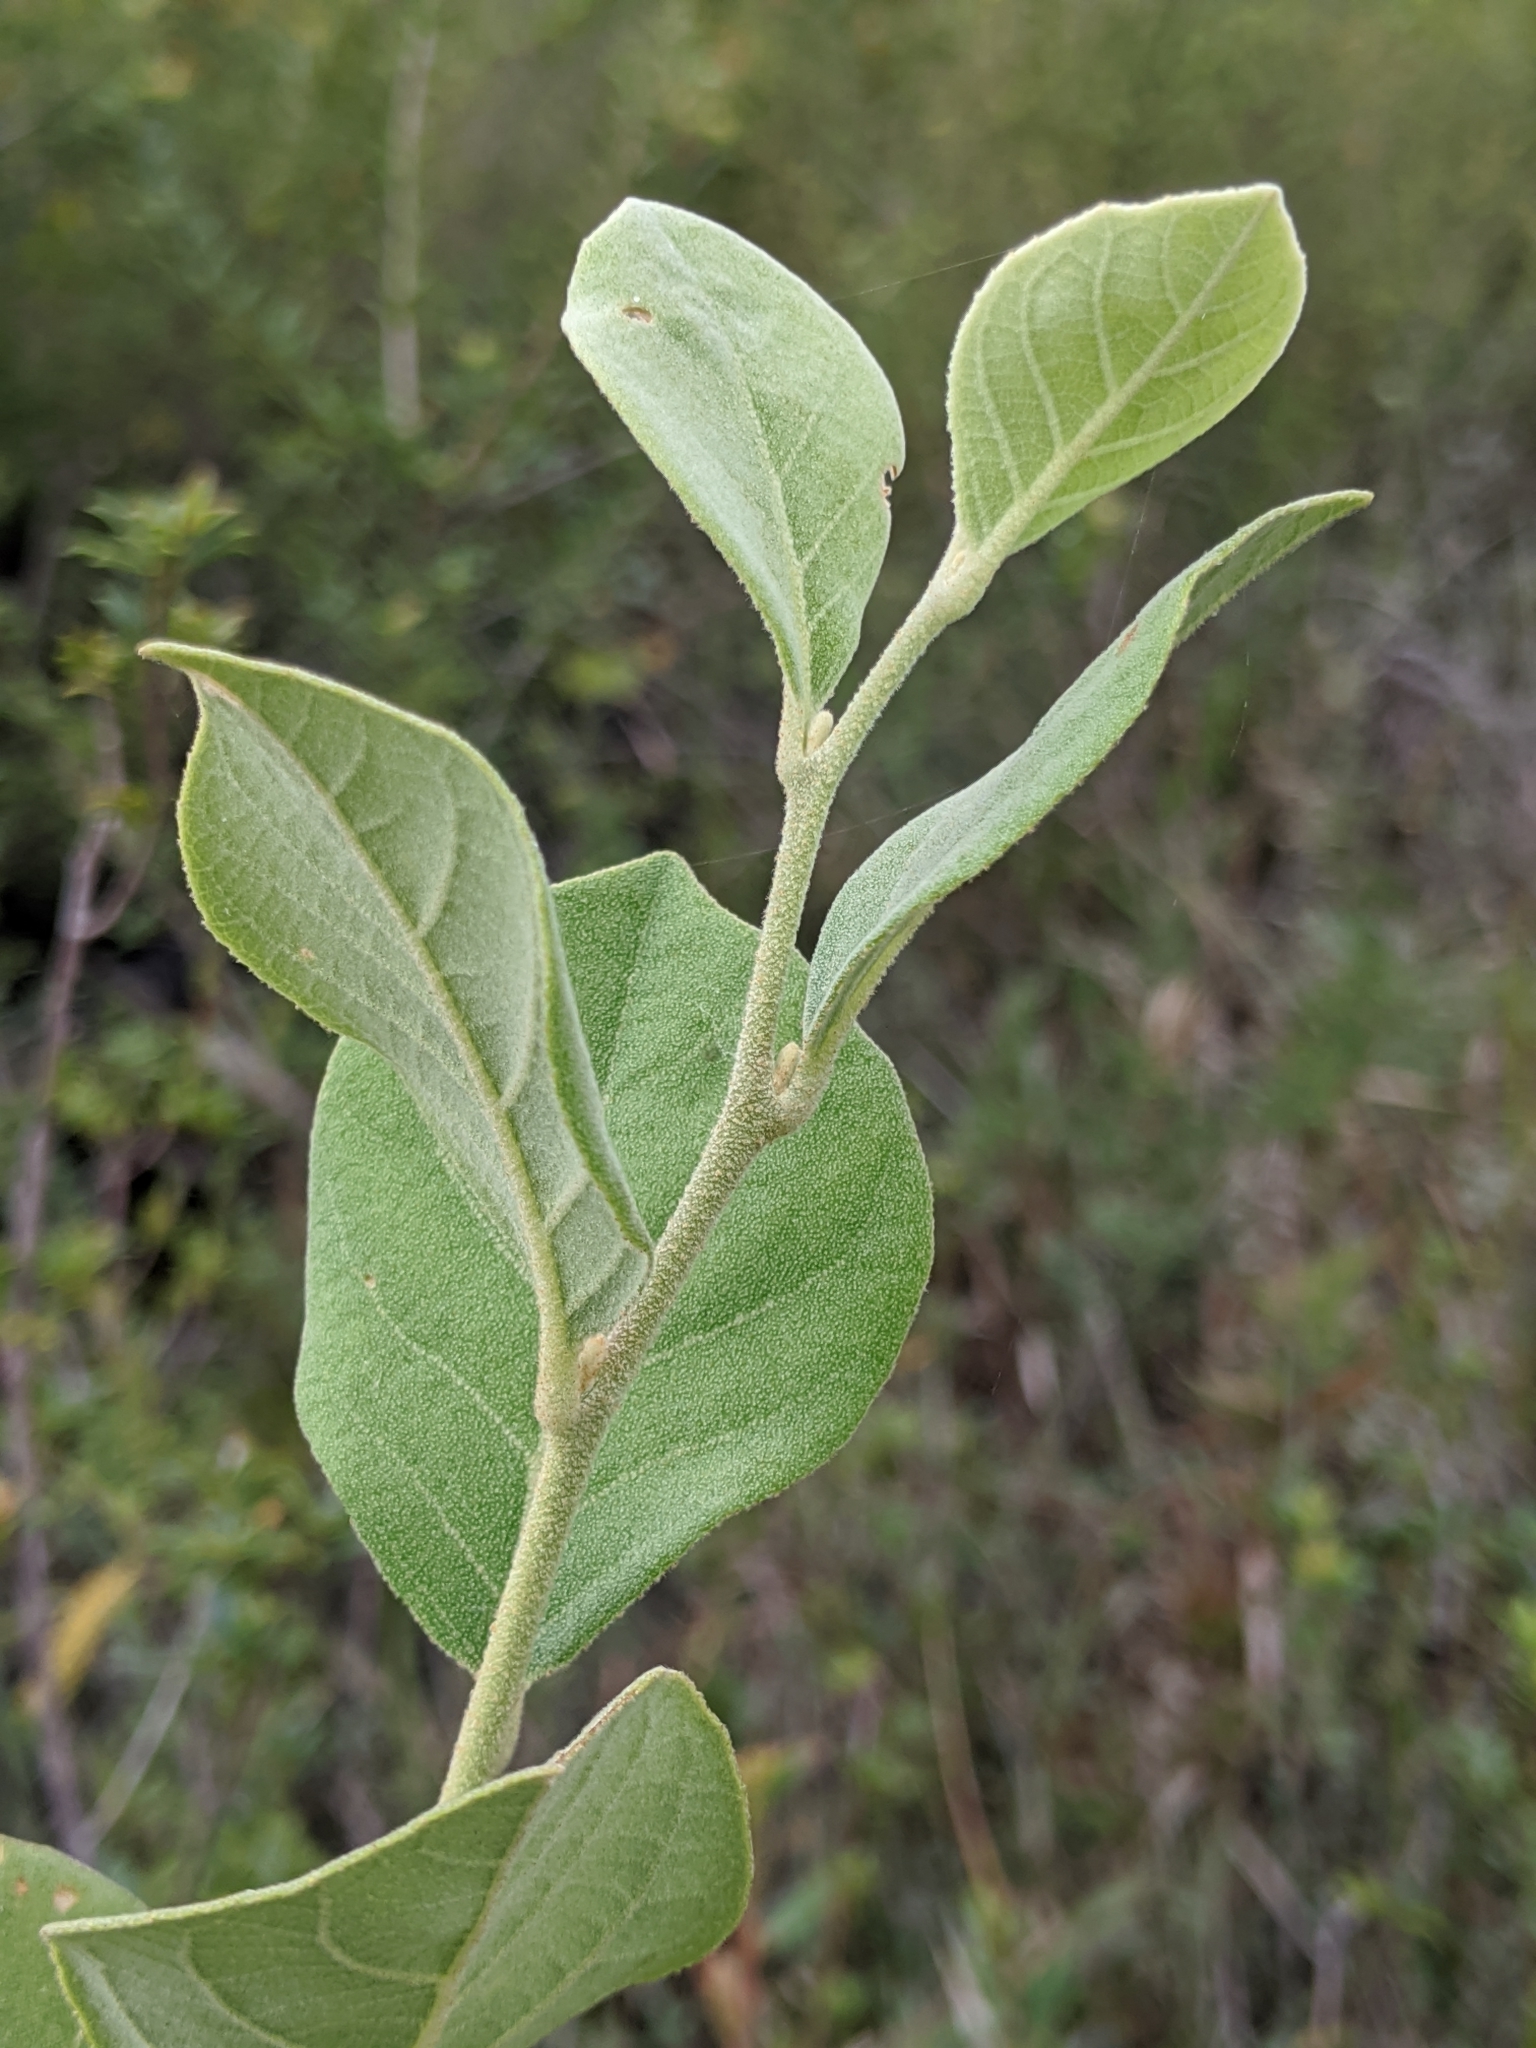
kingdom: Plantae
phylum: Tracheophyta
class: Magnoliopsida
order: Ericales
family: Styracaceae
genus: Styrax
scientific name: Styrax americanus
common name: American snowbell
